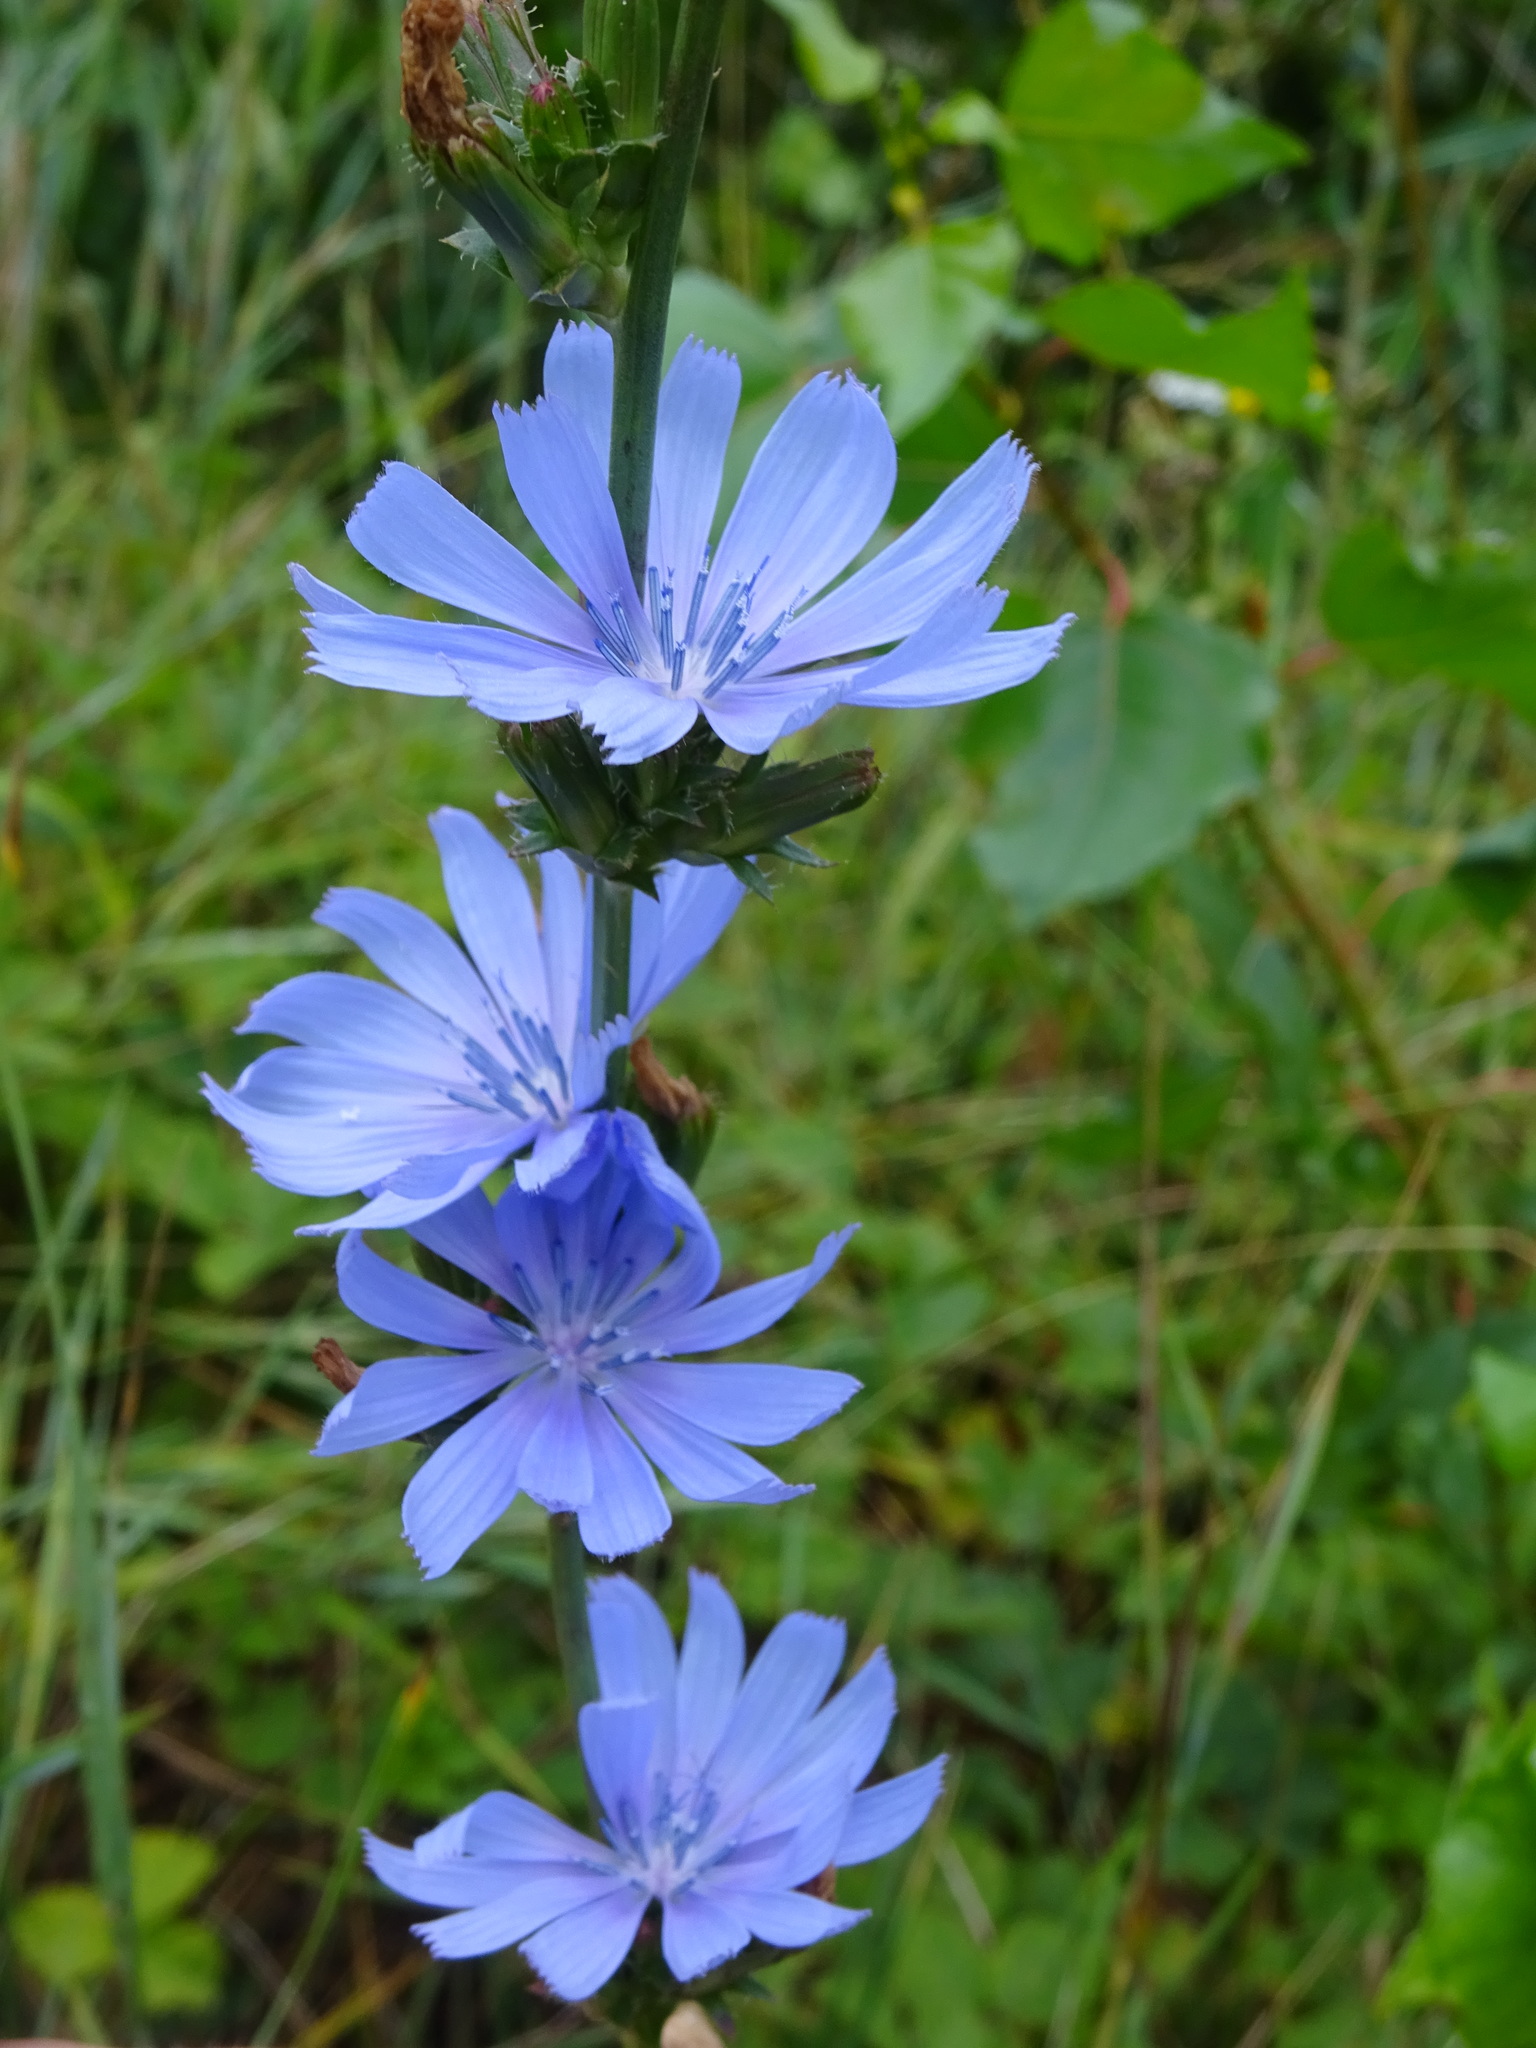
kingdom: Plantae
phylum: Tracheophyta
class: Magnoliopsida
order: Asterales
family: Asteraceae
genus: Cichorium
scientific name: Cichorium intybus
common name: Chicory
